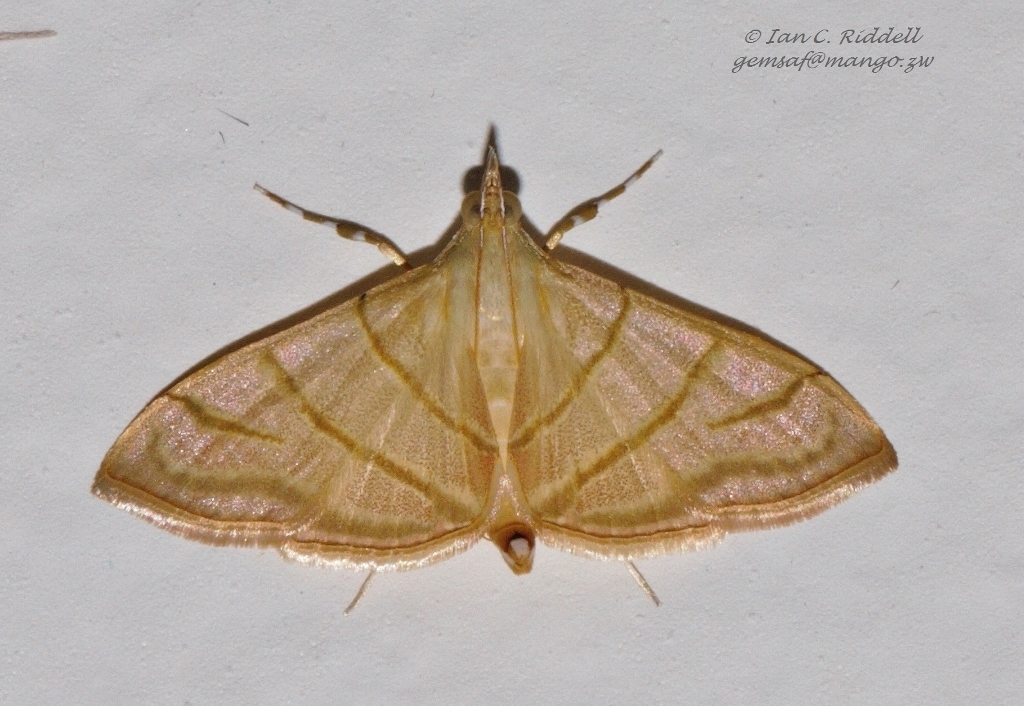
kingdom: Animalia
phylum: Arthropoda
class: Insecta
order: Lepidoptera
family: Crambidae
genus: Pagyda
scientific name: Pagyda salvalis
